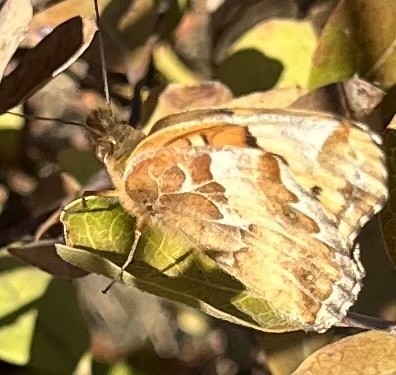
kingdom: Animalia
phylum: Arthropoda
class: Insecta
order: Lepidoptera
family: Nymphalidae
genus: Euptoieta
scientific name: Euptoieta claudia
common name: Variegated fritillary
